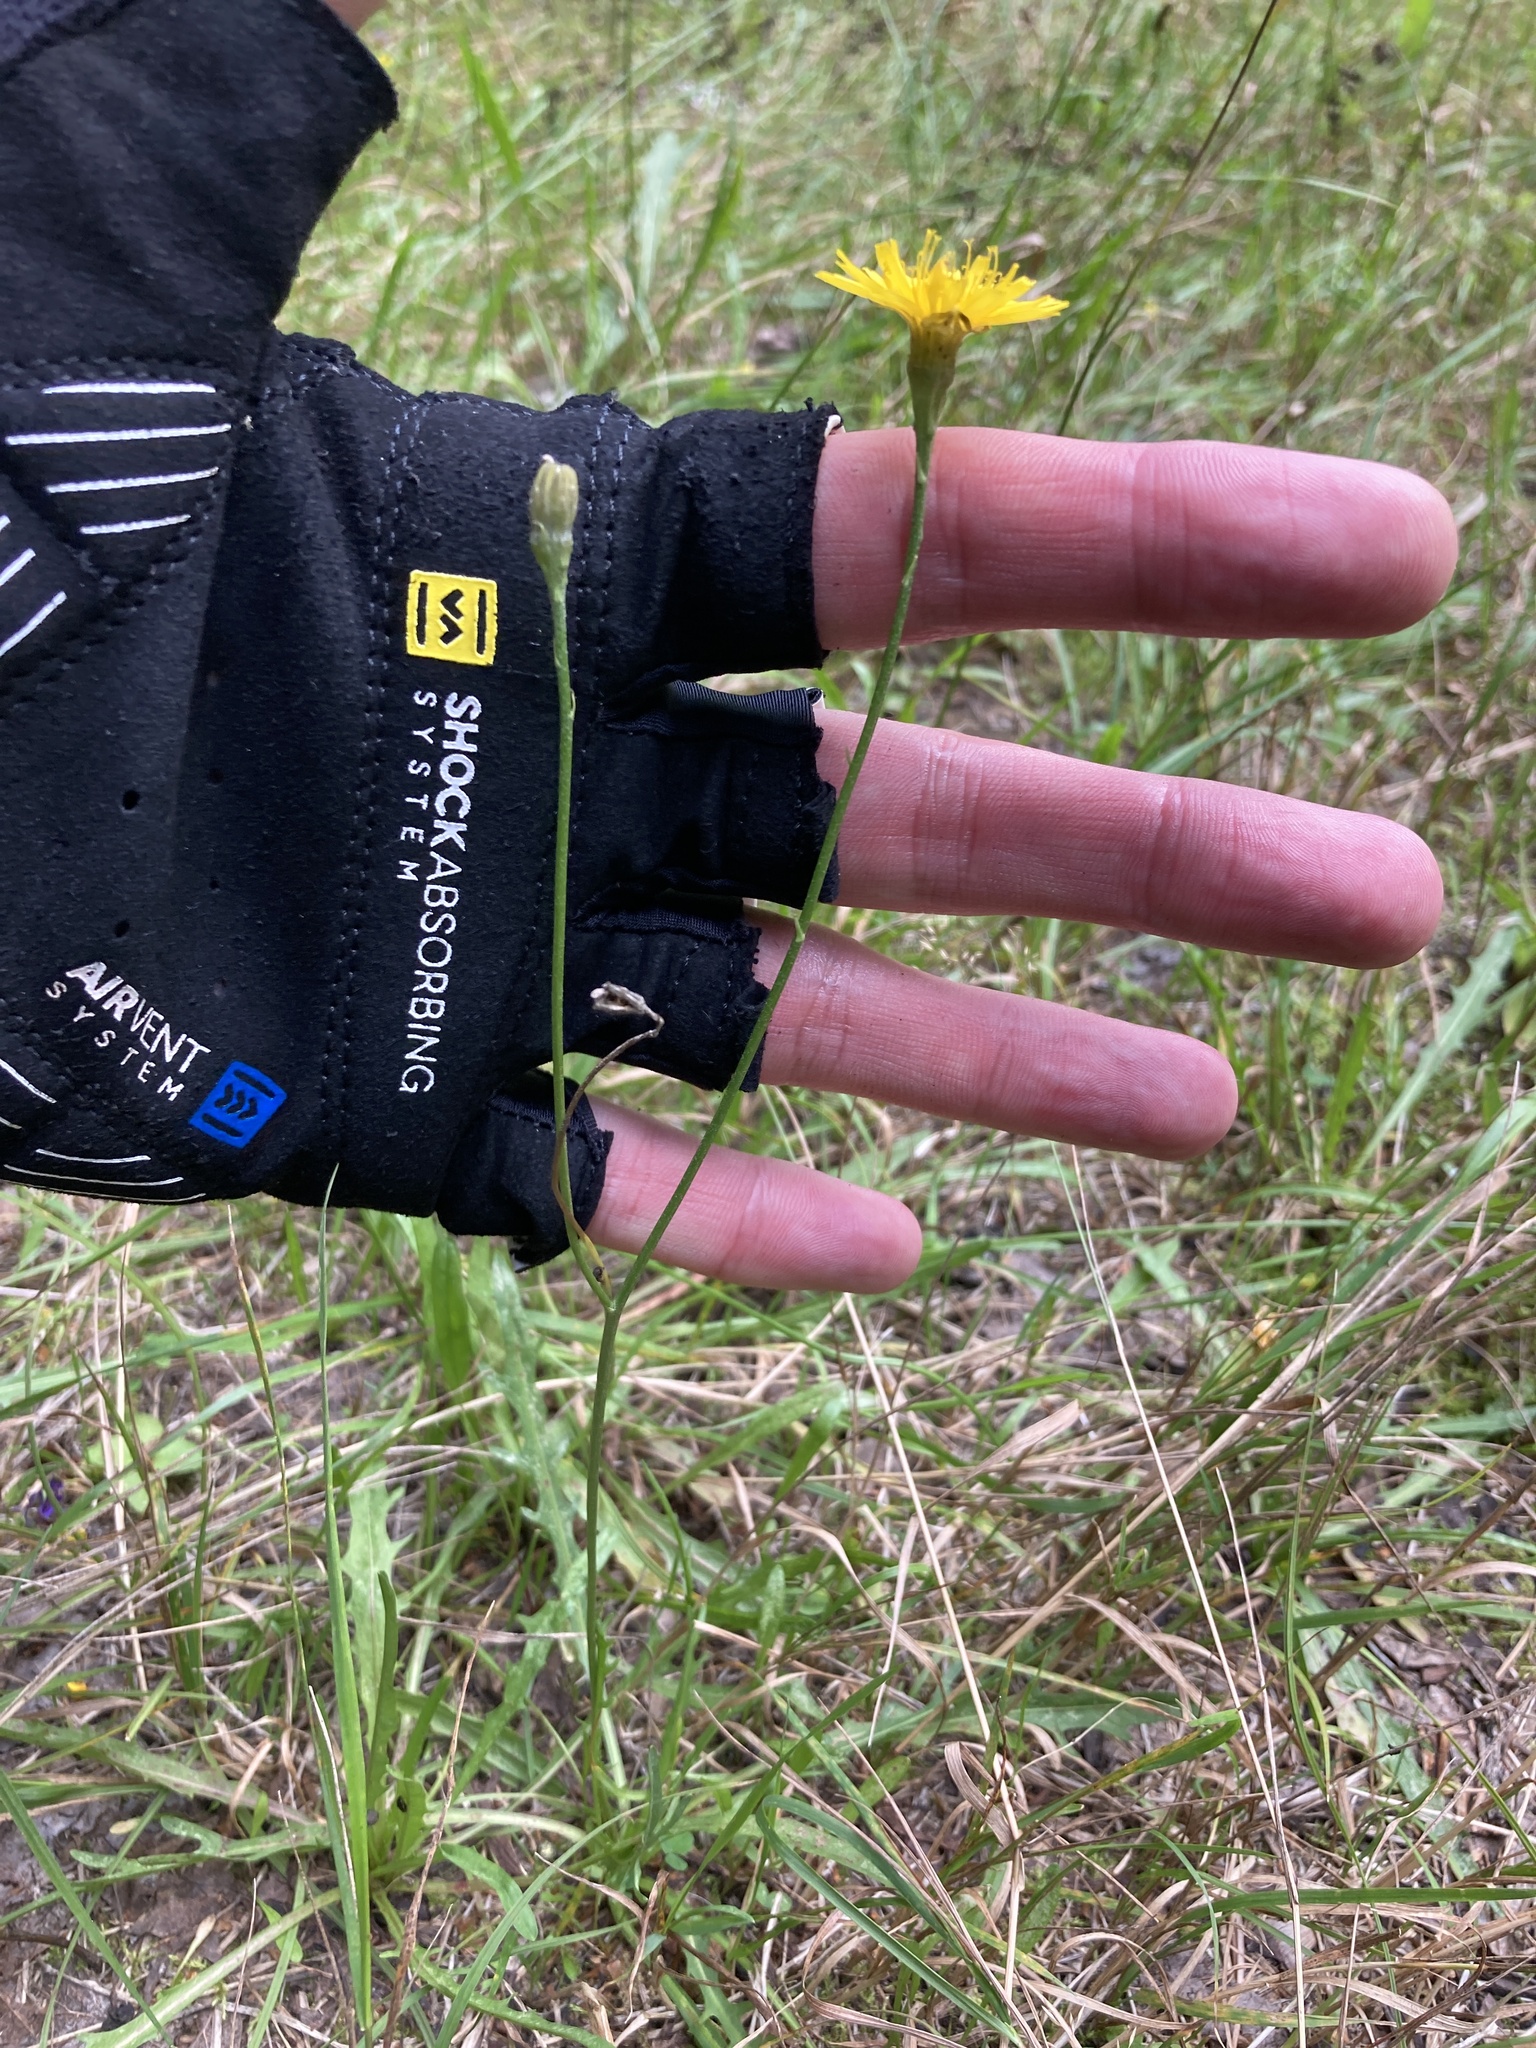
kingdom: Plantae
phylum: Tracheophyta
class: Magnoliopsida
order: Asterales
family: Asteraceae
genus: Scorzoneroides
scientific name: Scorzoneroides autumnalis
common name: Autumn hawkbit
